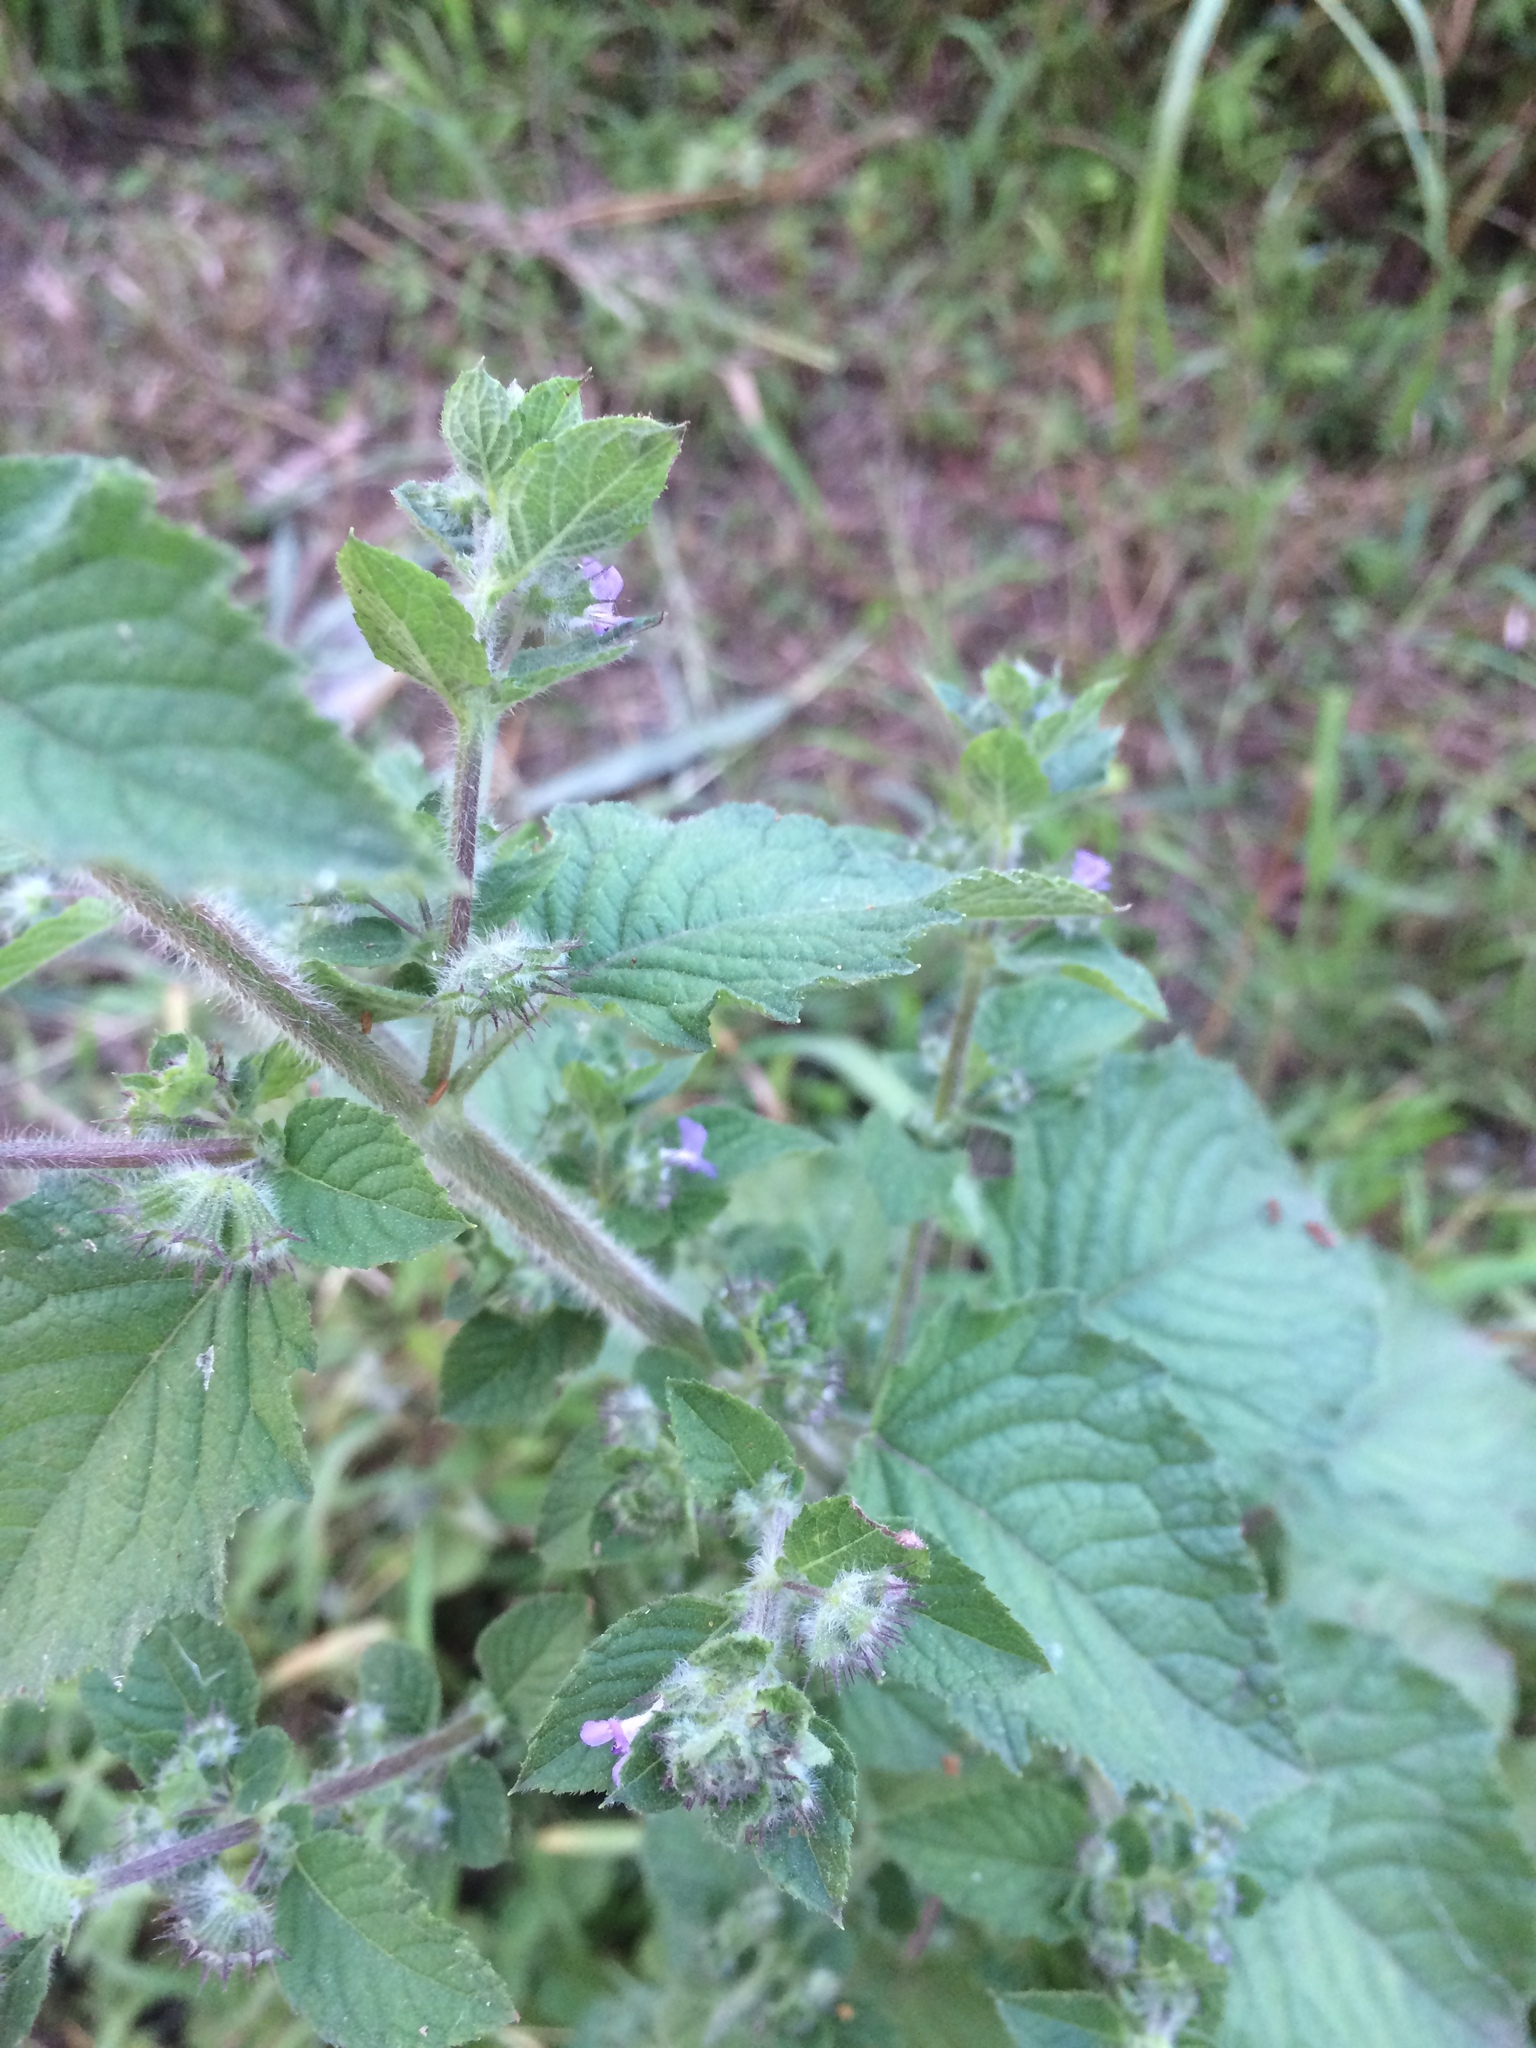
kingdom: Plantae
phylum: Tracheophyta
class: Magnoliopsida
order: Lamiales
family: Lamiaceae
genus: Mesosphaerum
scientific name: Mesosphaerum suaveolens
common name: Pignut
